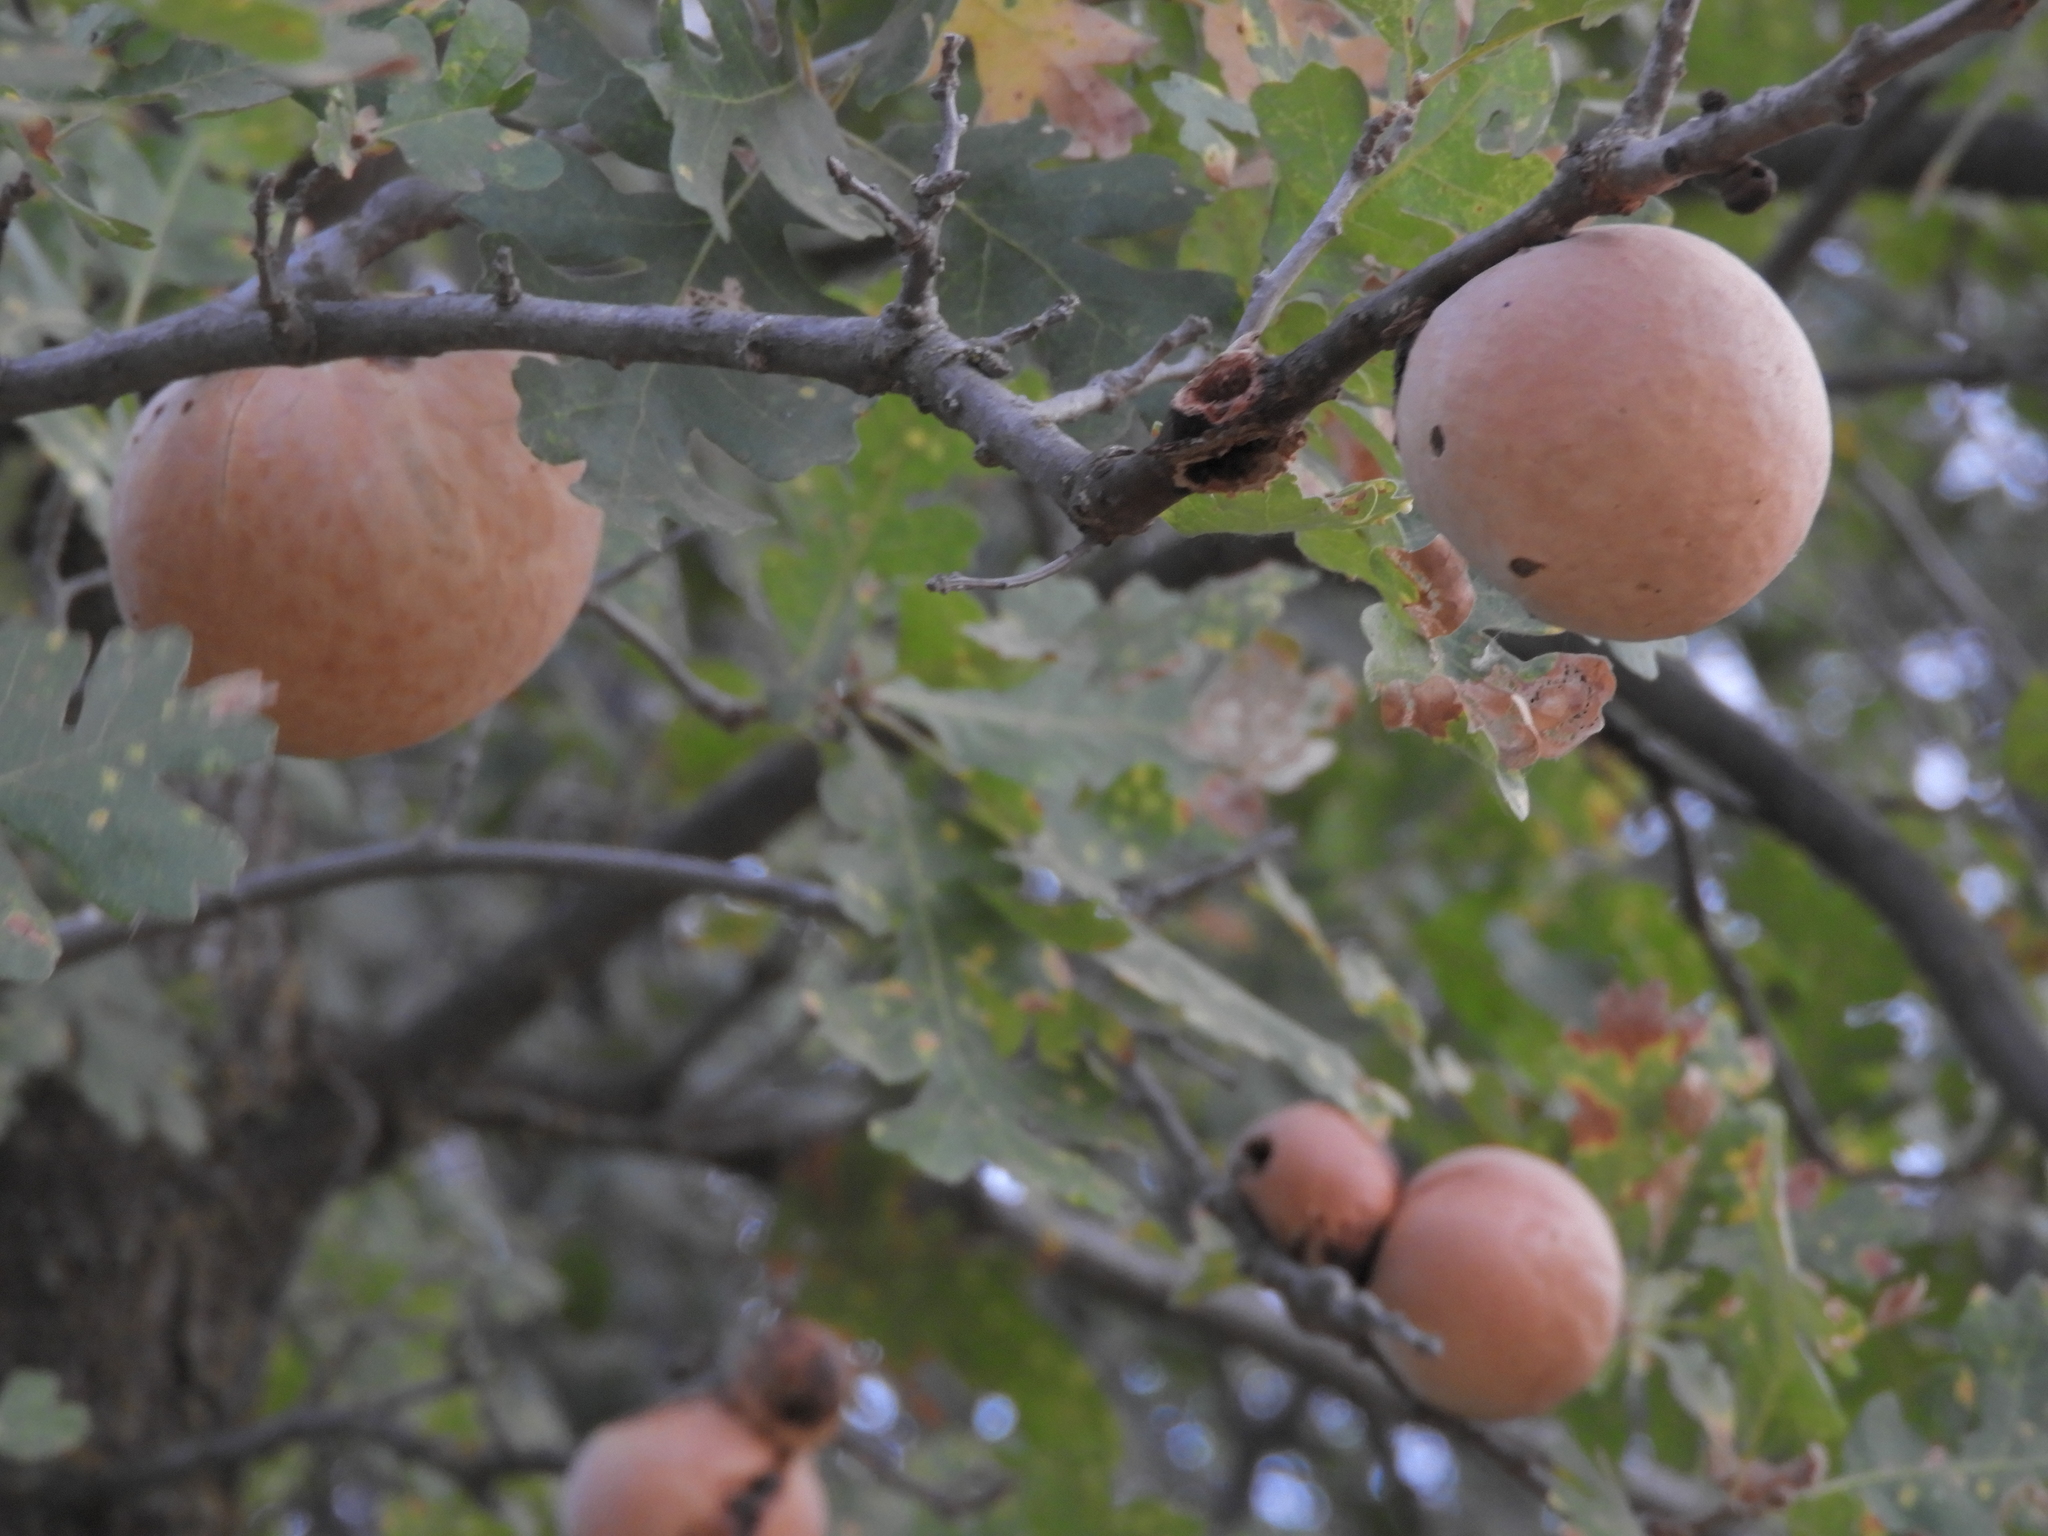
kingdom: Animalia
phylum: Arthropoda
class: Insecta
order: Hymenoptera
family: Cynipidae
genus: Andricus
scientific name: Andricus quercuscalifornicus
